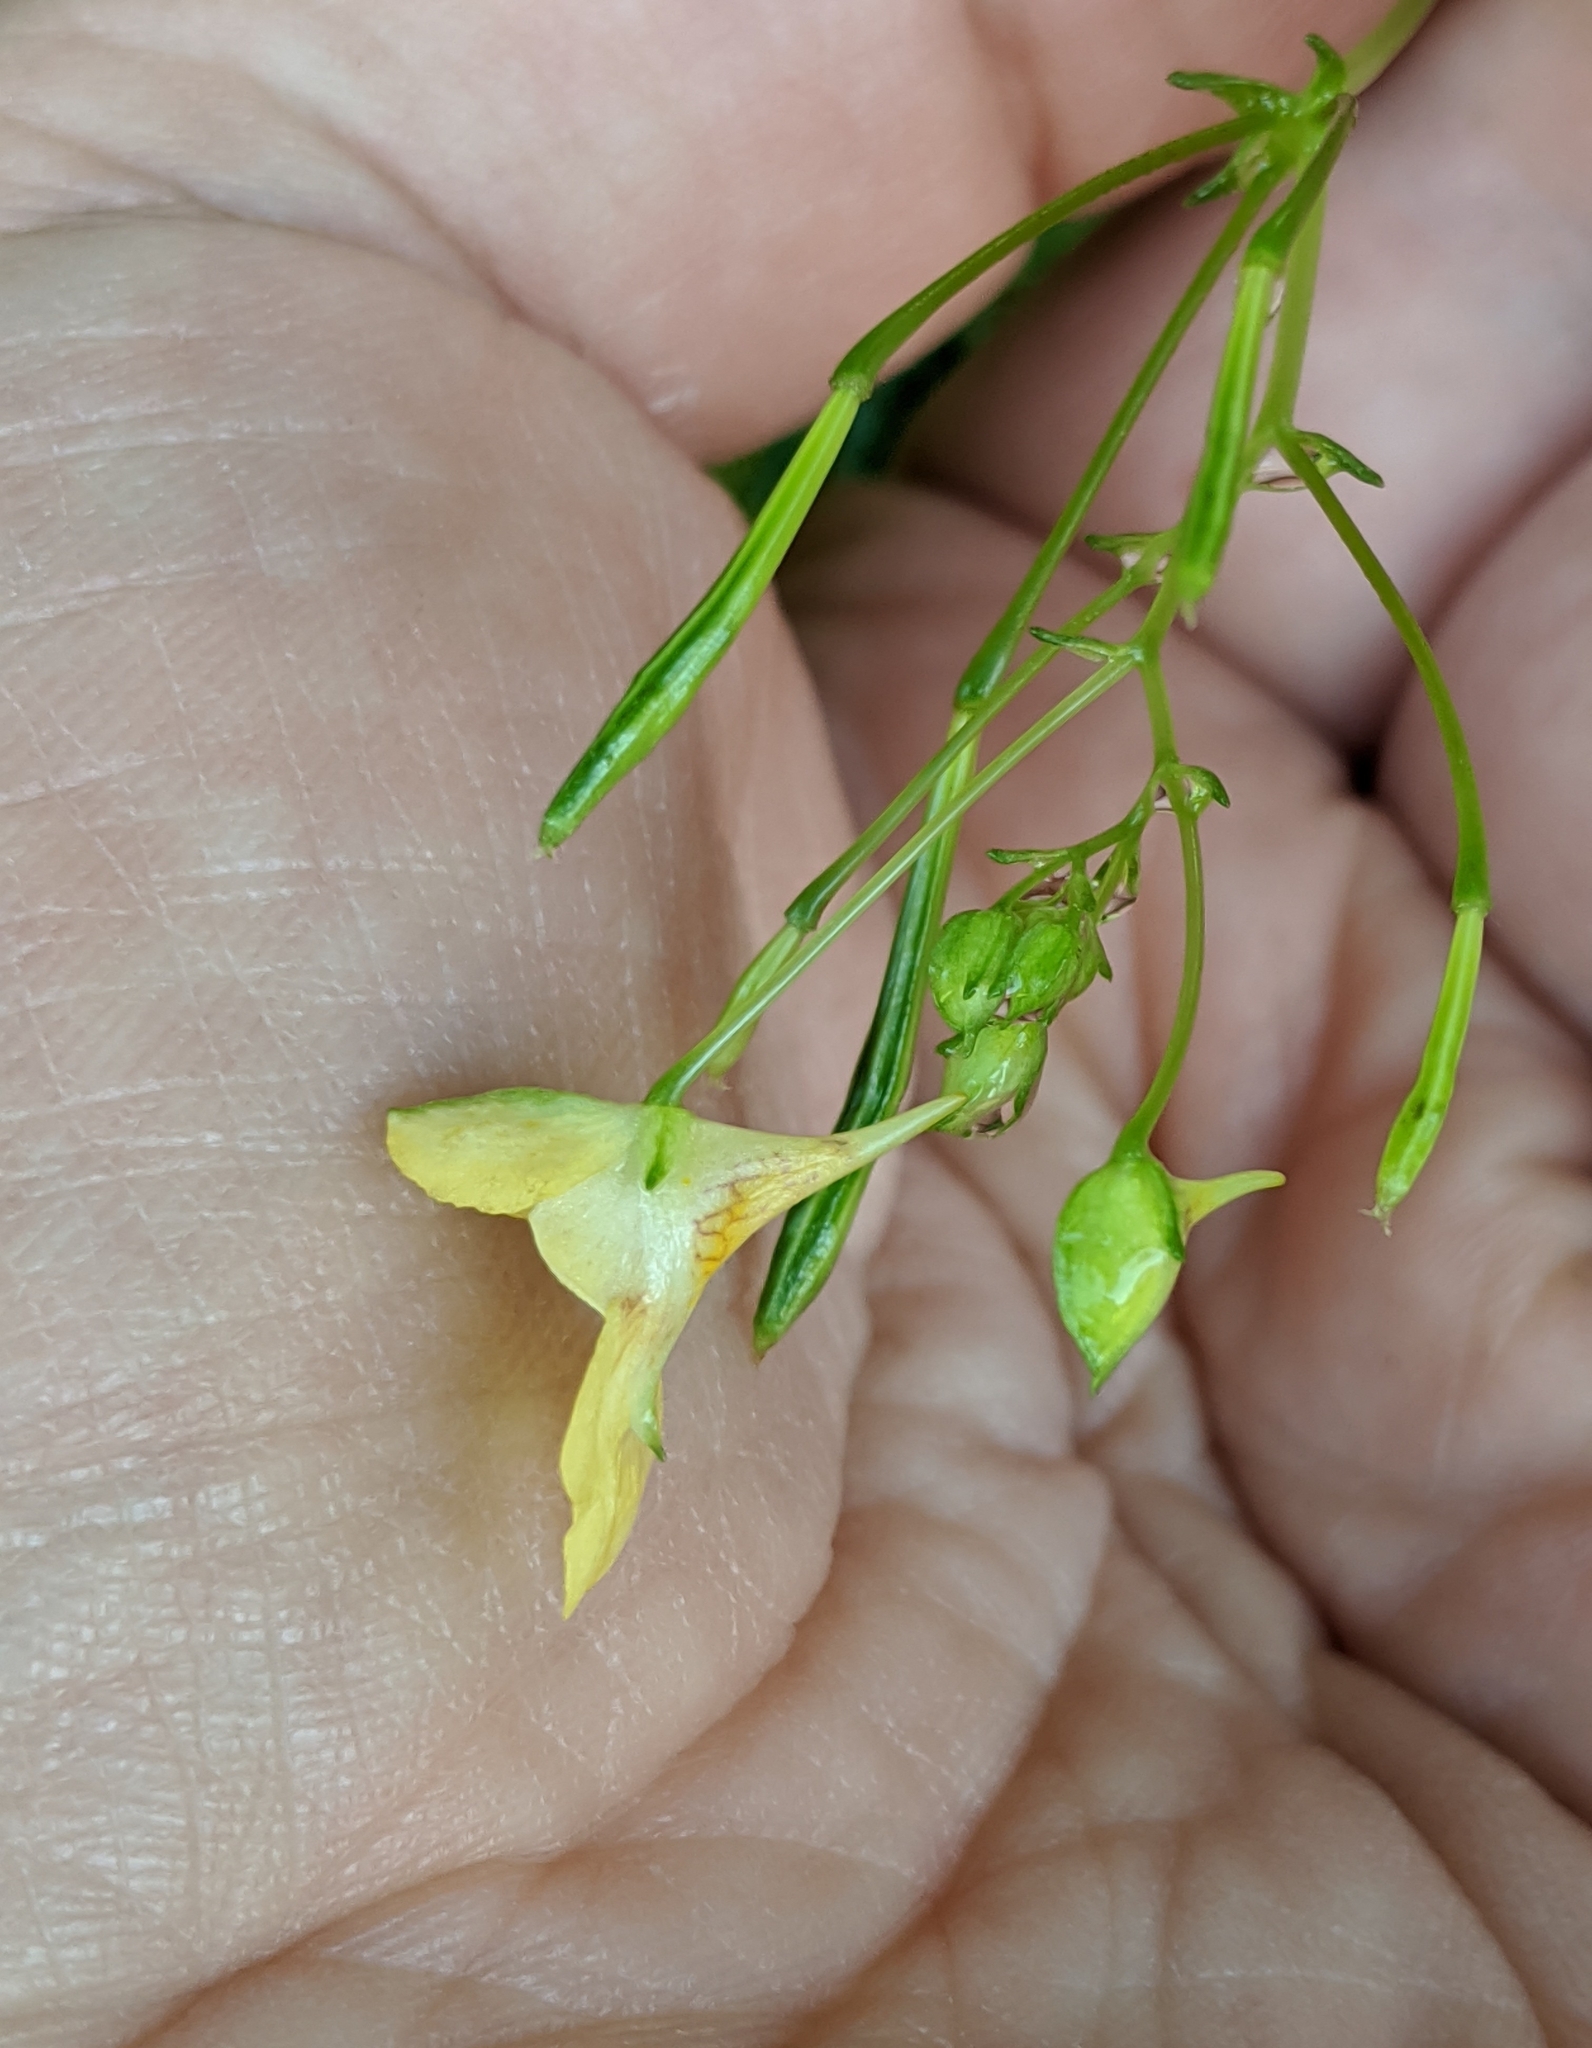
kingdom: Plantae
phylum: Tracheophyta
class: Magnoliopsida
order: Ericales
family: Balsaminaceae
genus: Impatiens
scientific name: Impatiens parviflora
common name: Small balsam
